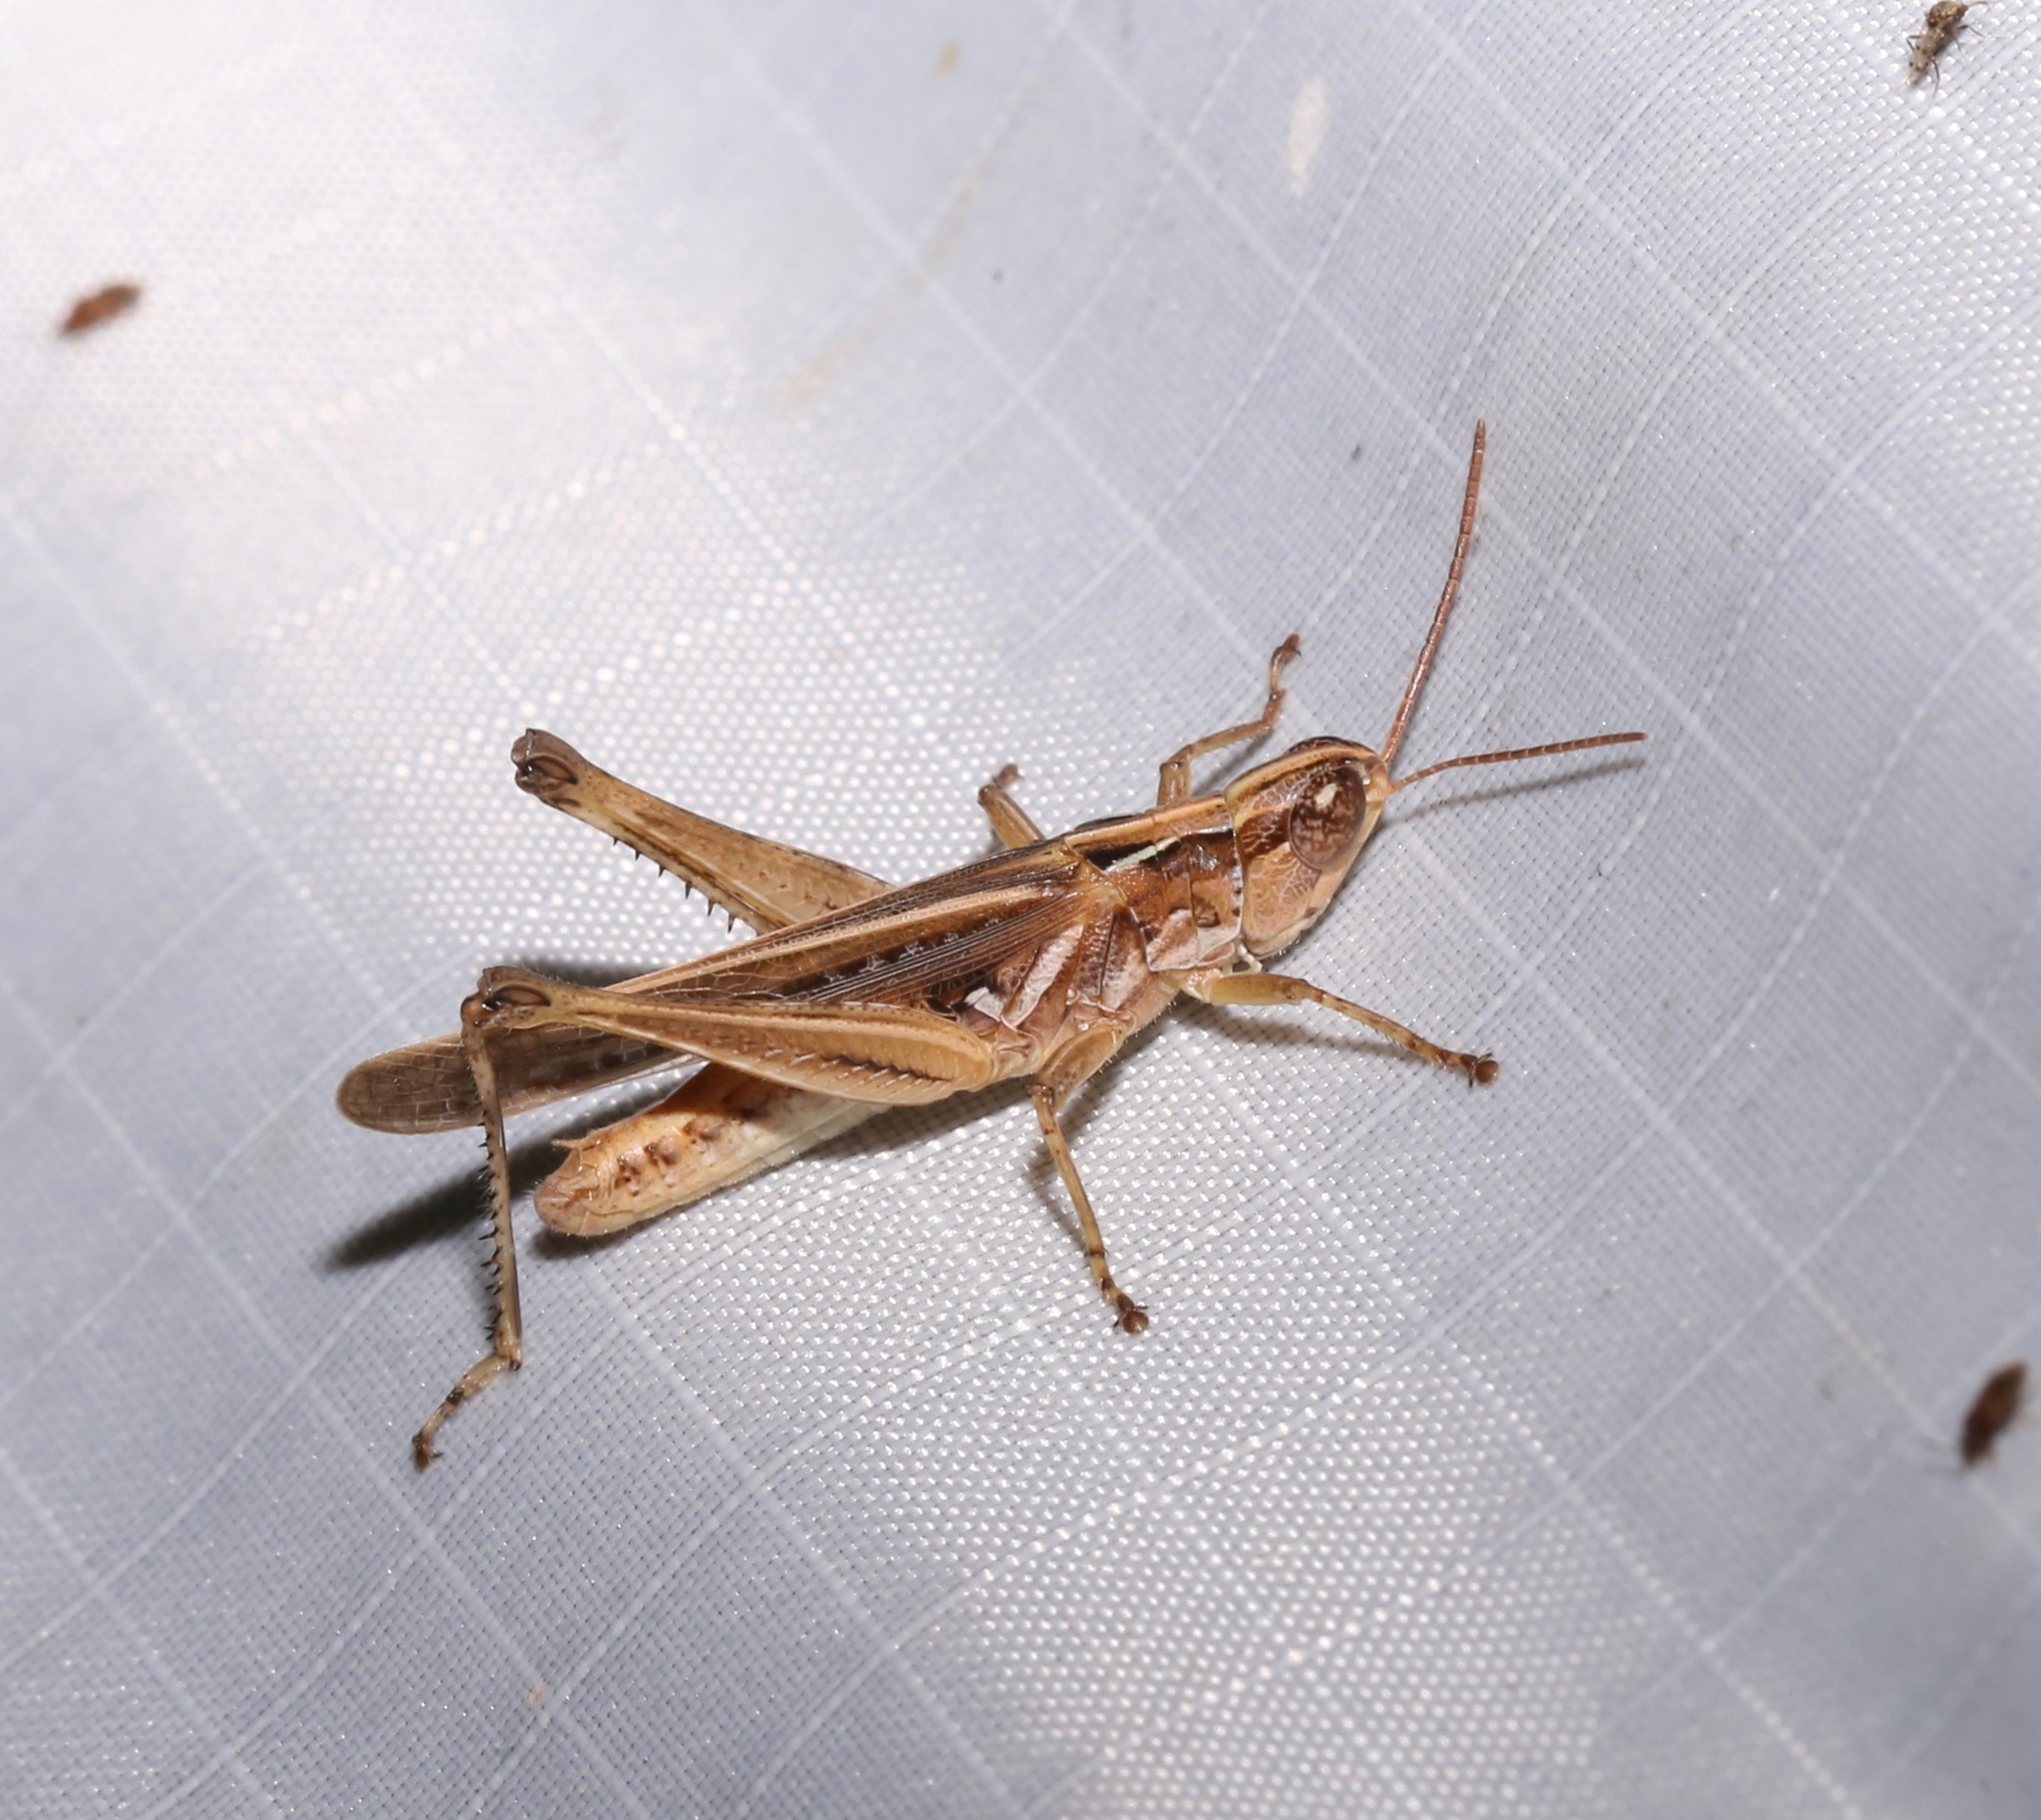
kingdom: Animalia
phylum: Arthropoda
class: Insecta
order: Orthoptera
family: Acrididae
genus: Orphulella
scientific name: Orphulella pelidna
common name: Spotted-wing grasshopper
